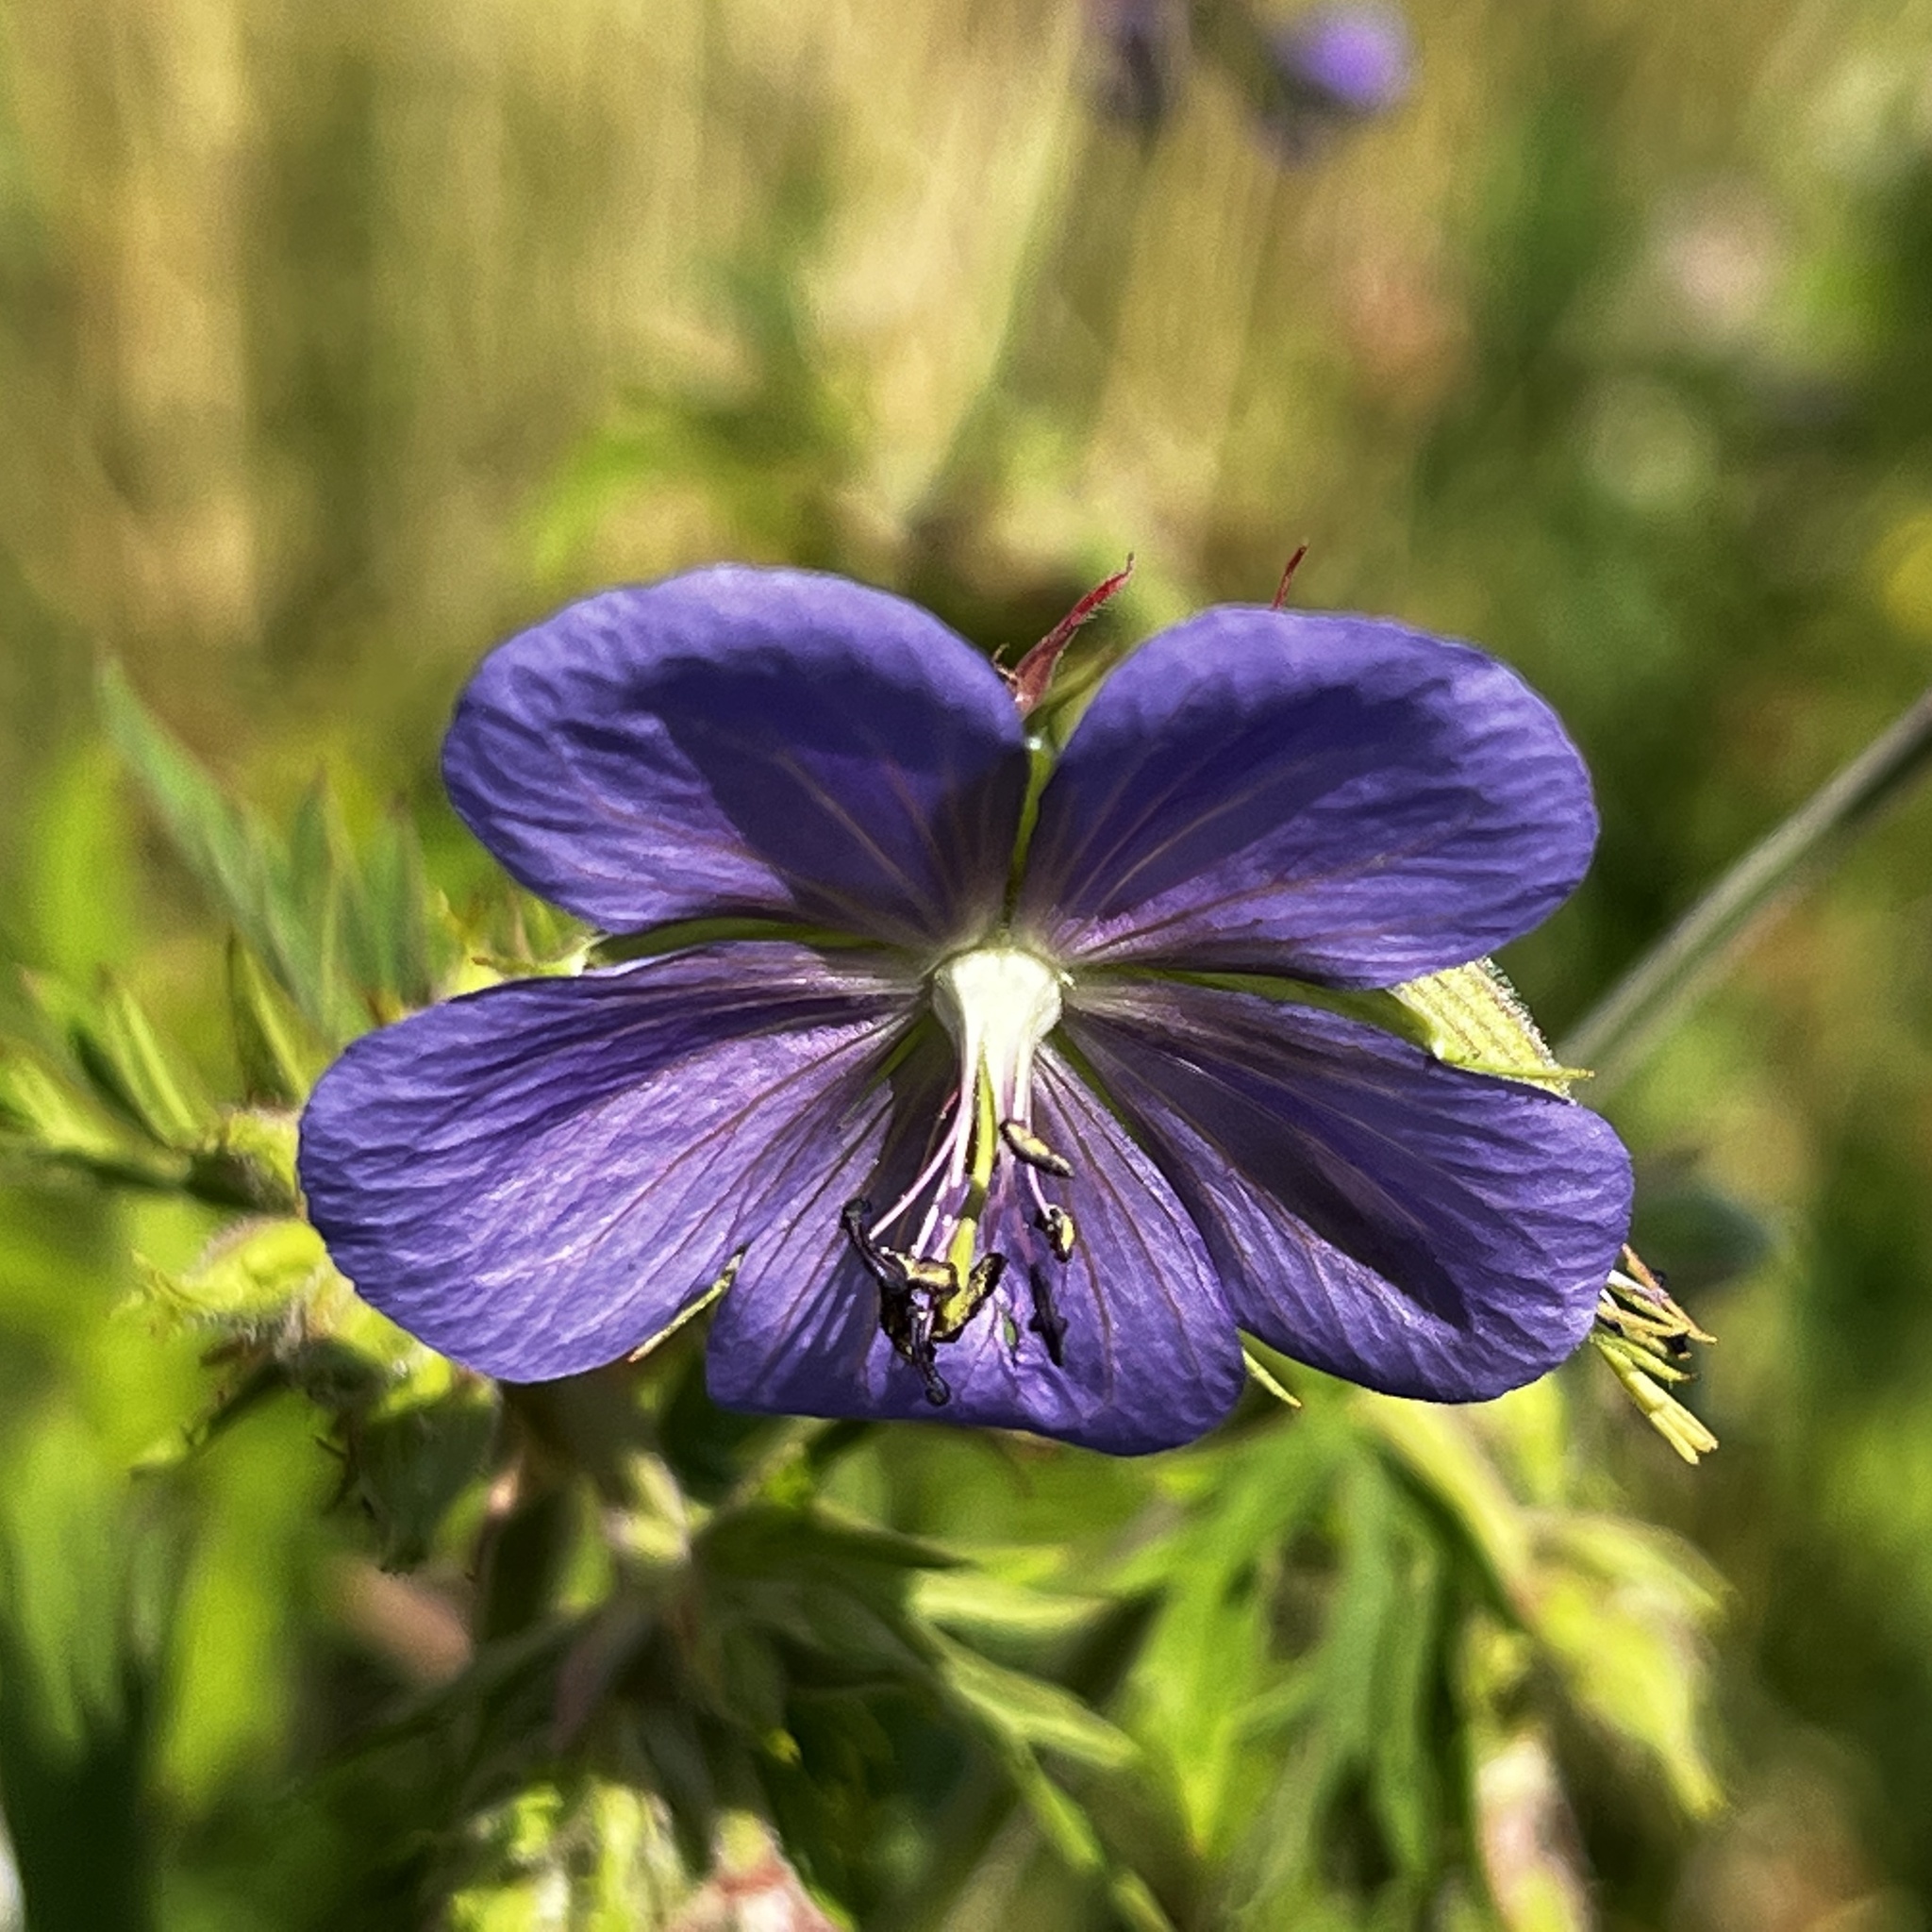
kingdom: Plantae
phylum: Tracheophyta
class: Magnoliopsida
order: Geraniales
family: Geraniaceae
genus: Geranium
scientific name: Geranium pratense
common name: Meadow crane's-bill
